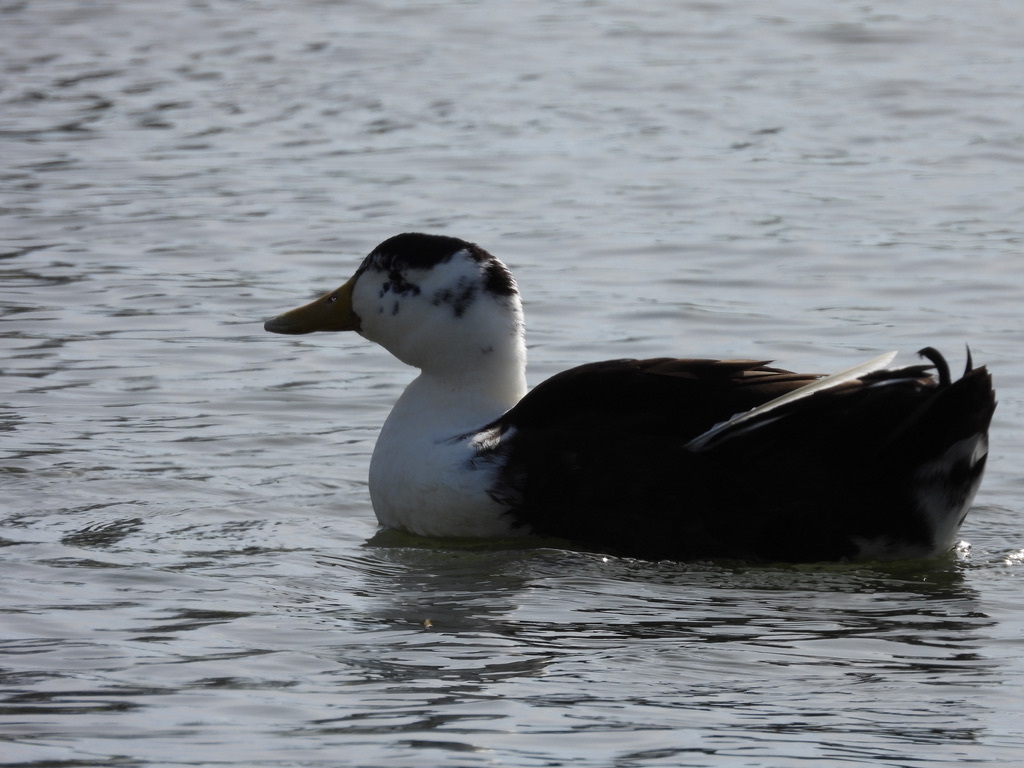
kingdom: Animalia
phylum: Chordata
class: Aves
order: Anseriformes
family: Anatidae
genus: Anas
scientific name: Anas platyrhynchos
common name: Mallard
